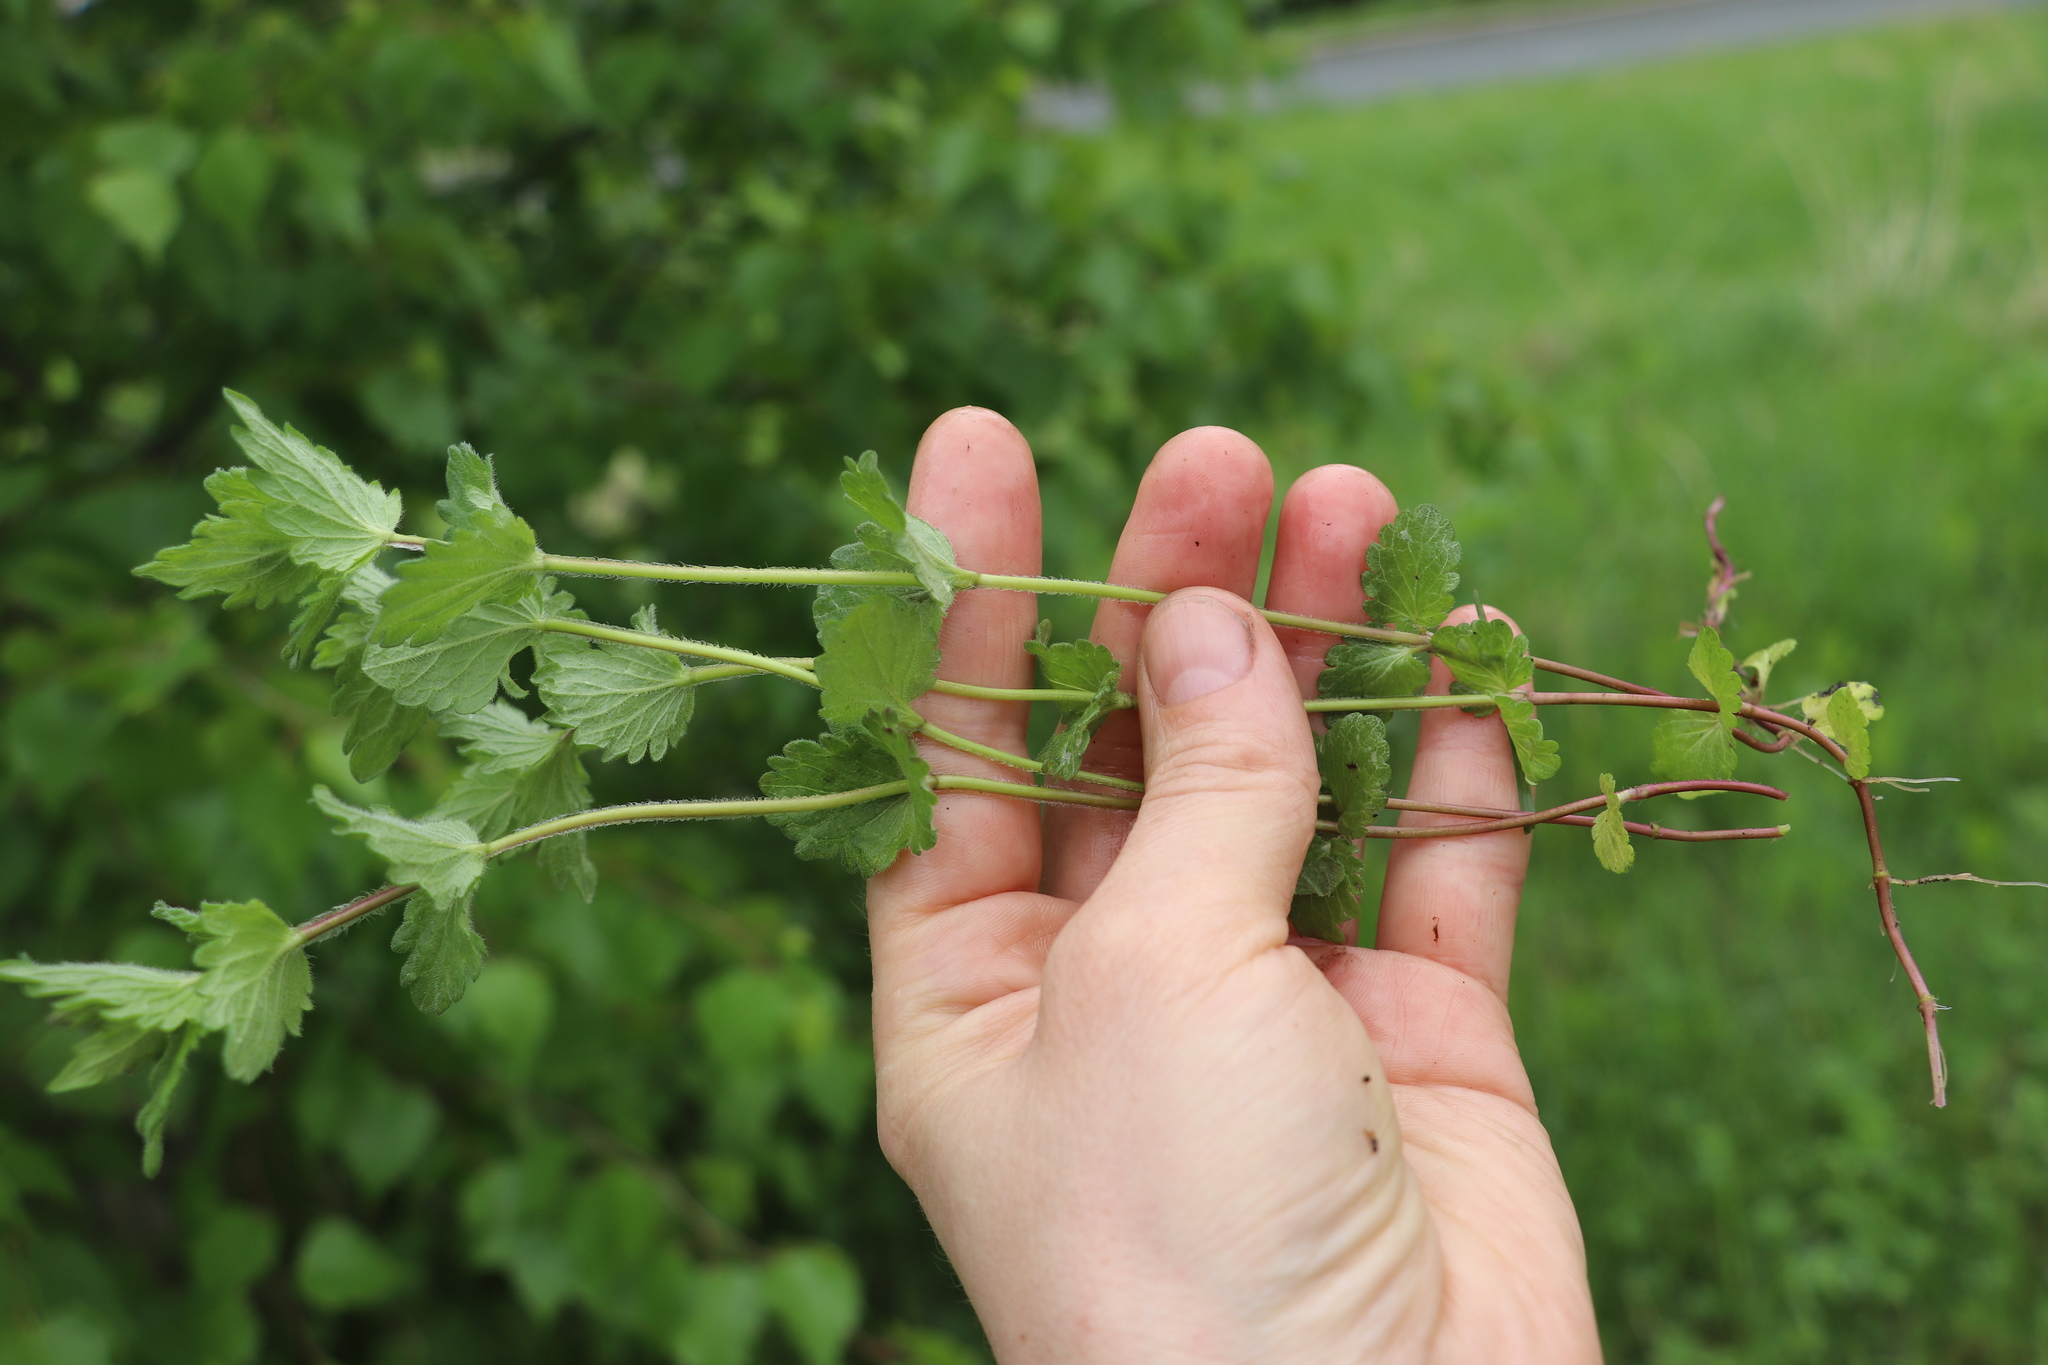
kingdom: Plantae
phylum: Tracheophyta
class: Magnoliopsida
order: Lamiales
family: Plantaginaceae
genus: Veronica
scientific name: Veronica chamaedrys
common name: Germander speedwell
